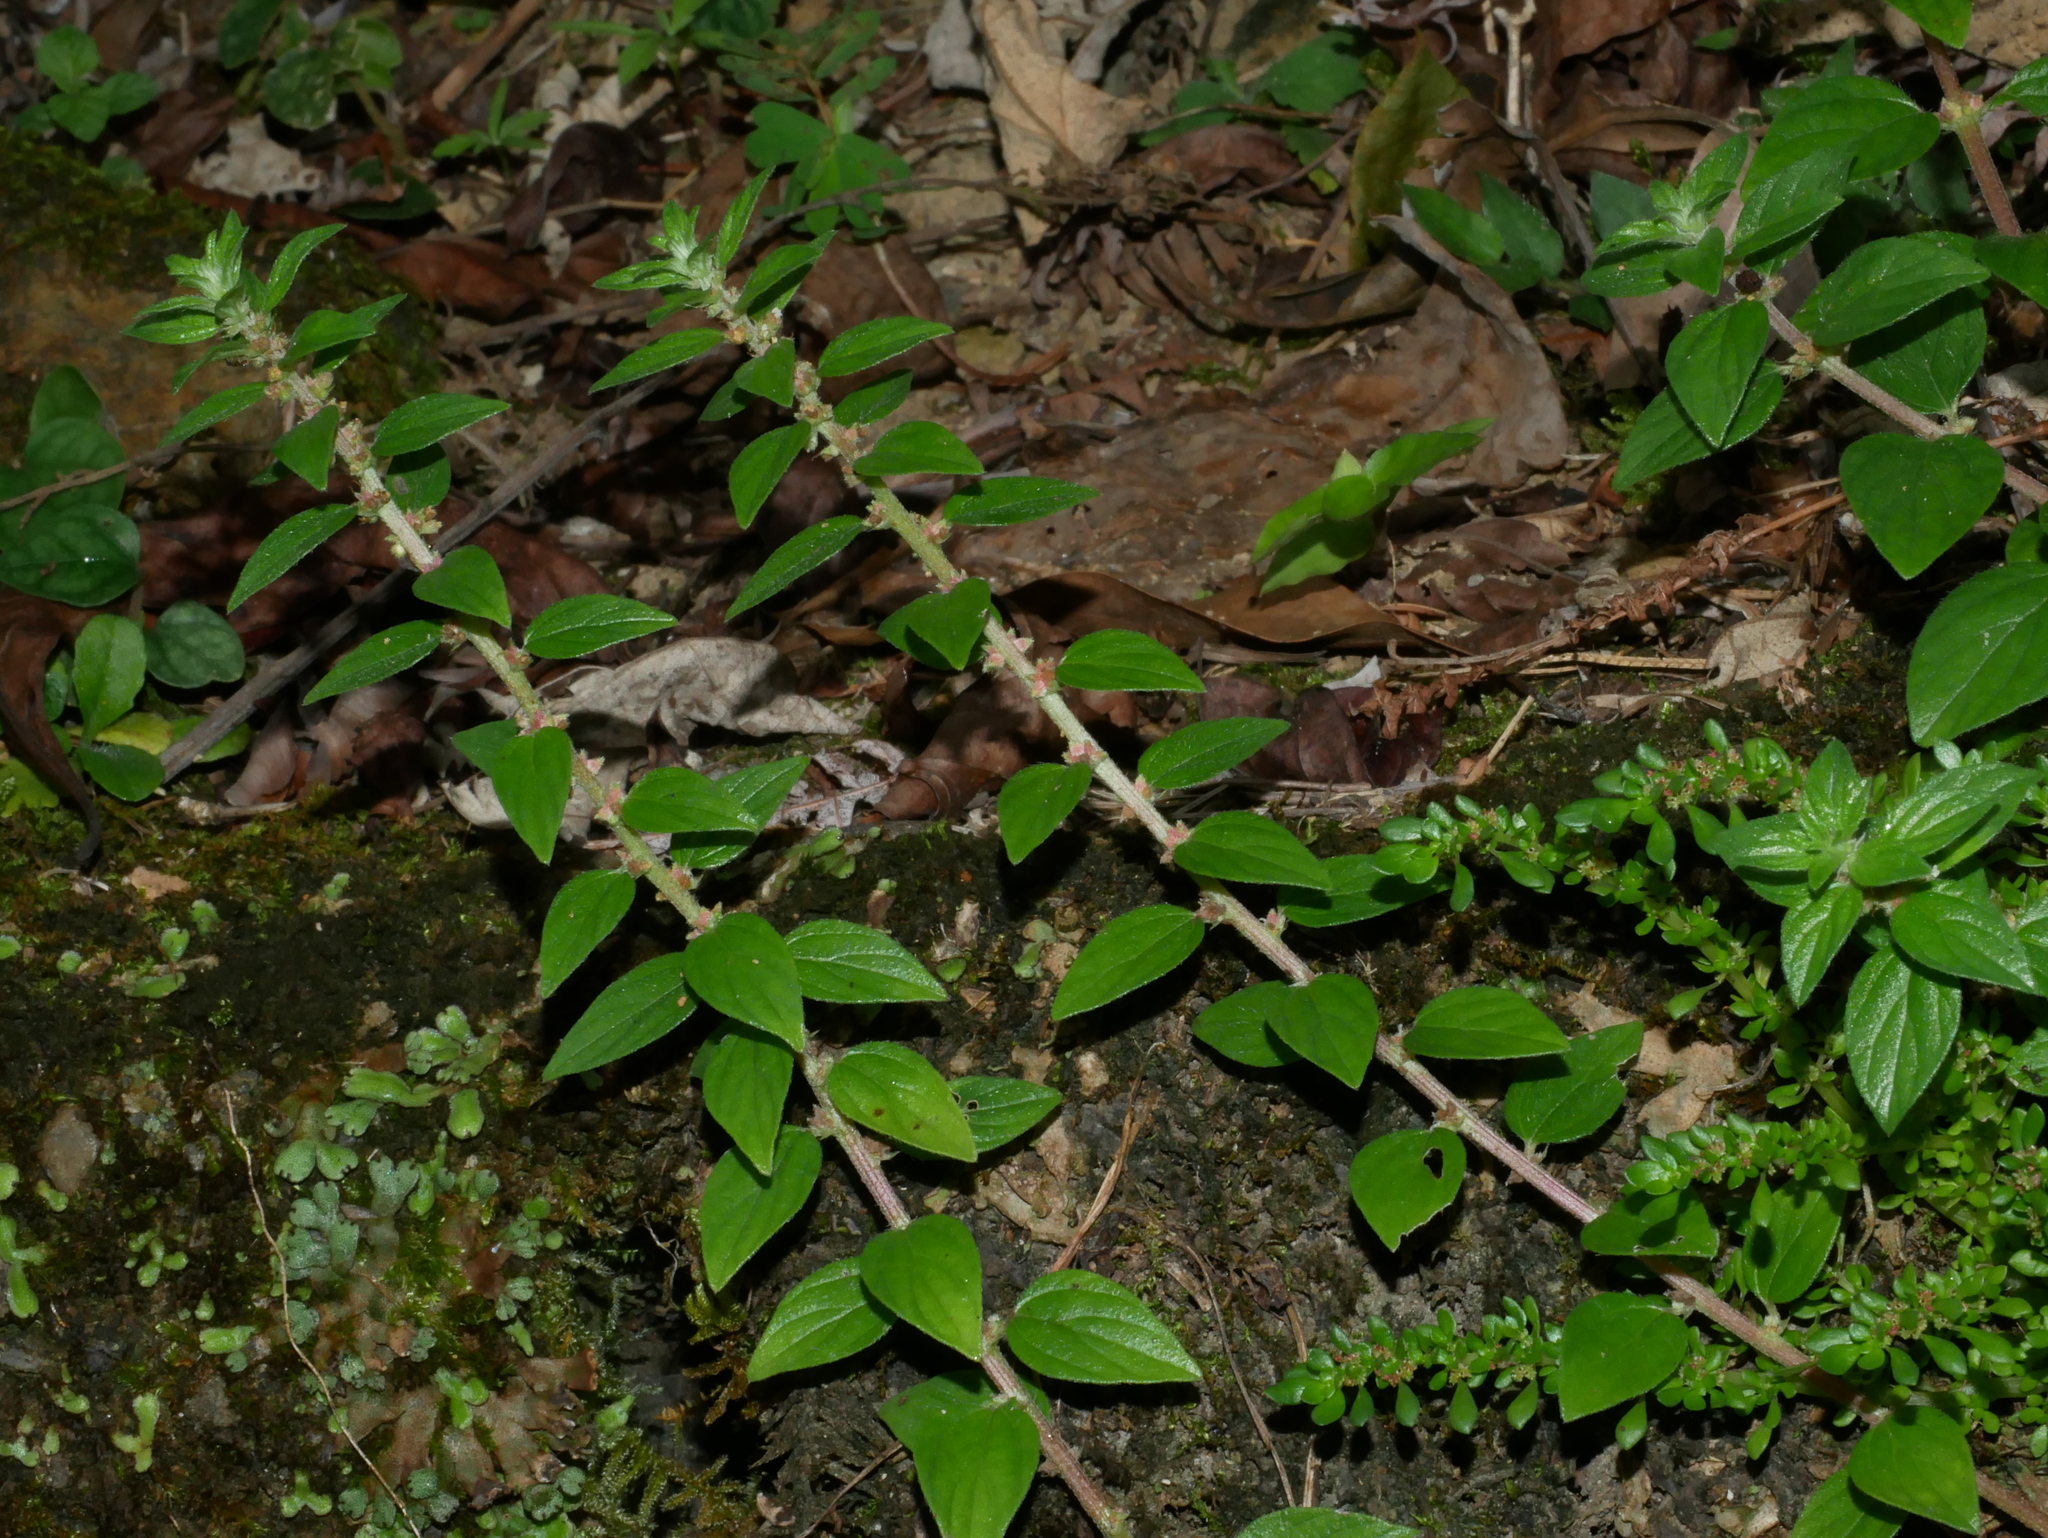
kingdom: Plantae
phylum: Tracheophyta
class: Magnoliopsida
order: Rosales
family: Urticaceae
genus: Pouzolzia
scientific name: Pouzolzia zeylanica
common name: Graceful pouzolzsbush
